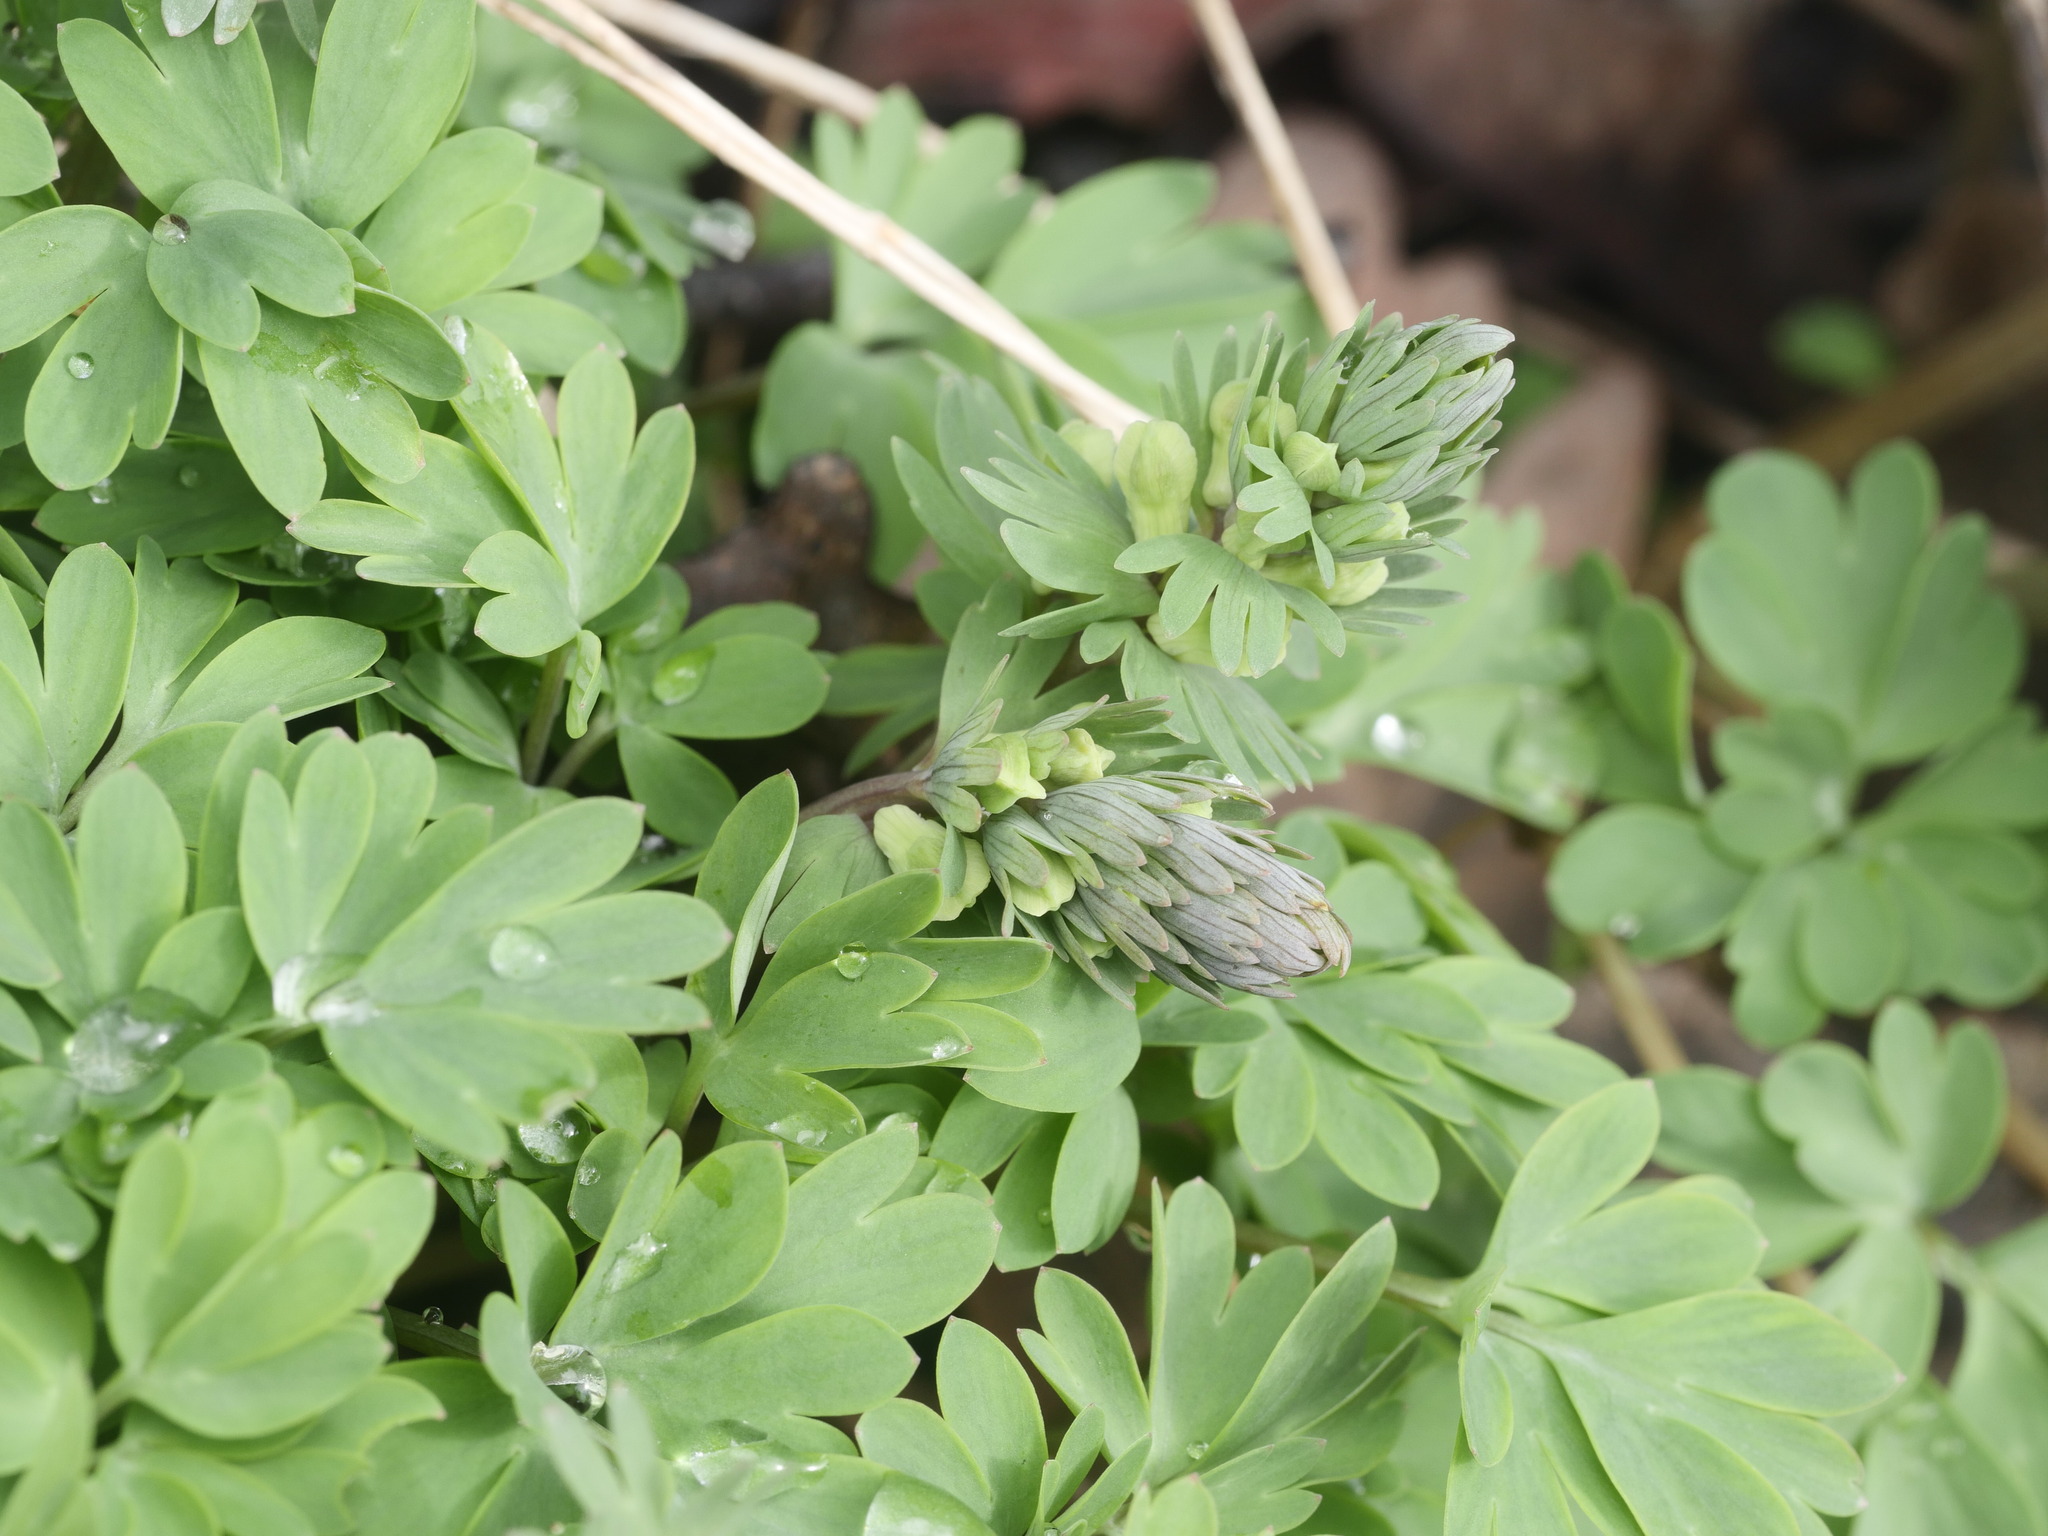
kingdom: Plantae
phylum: Tracheophyta
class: Magnoliopsida
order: Ranunculales
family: Papaveraceae
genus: Corydalis
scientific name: Corydalis solida
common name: Bird-in-a-bush
